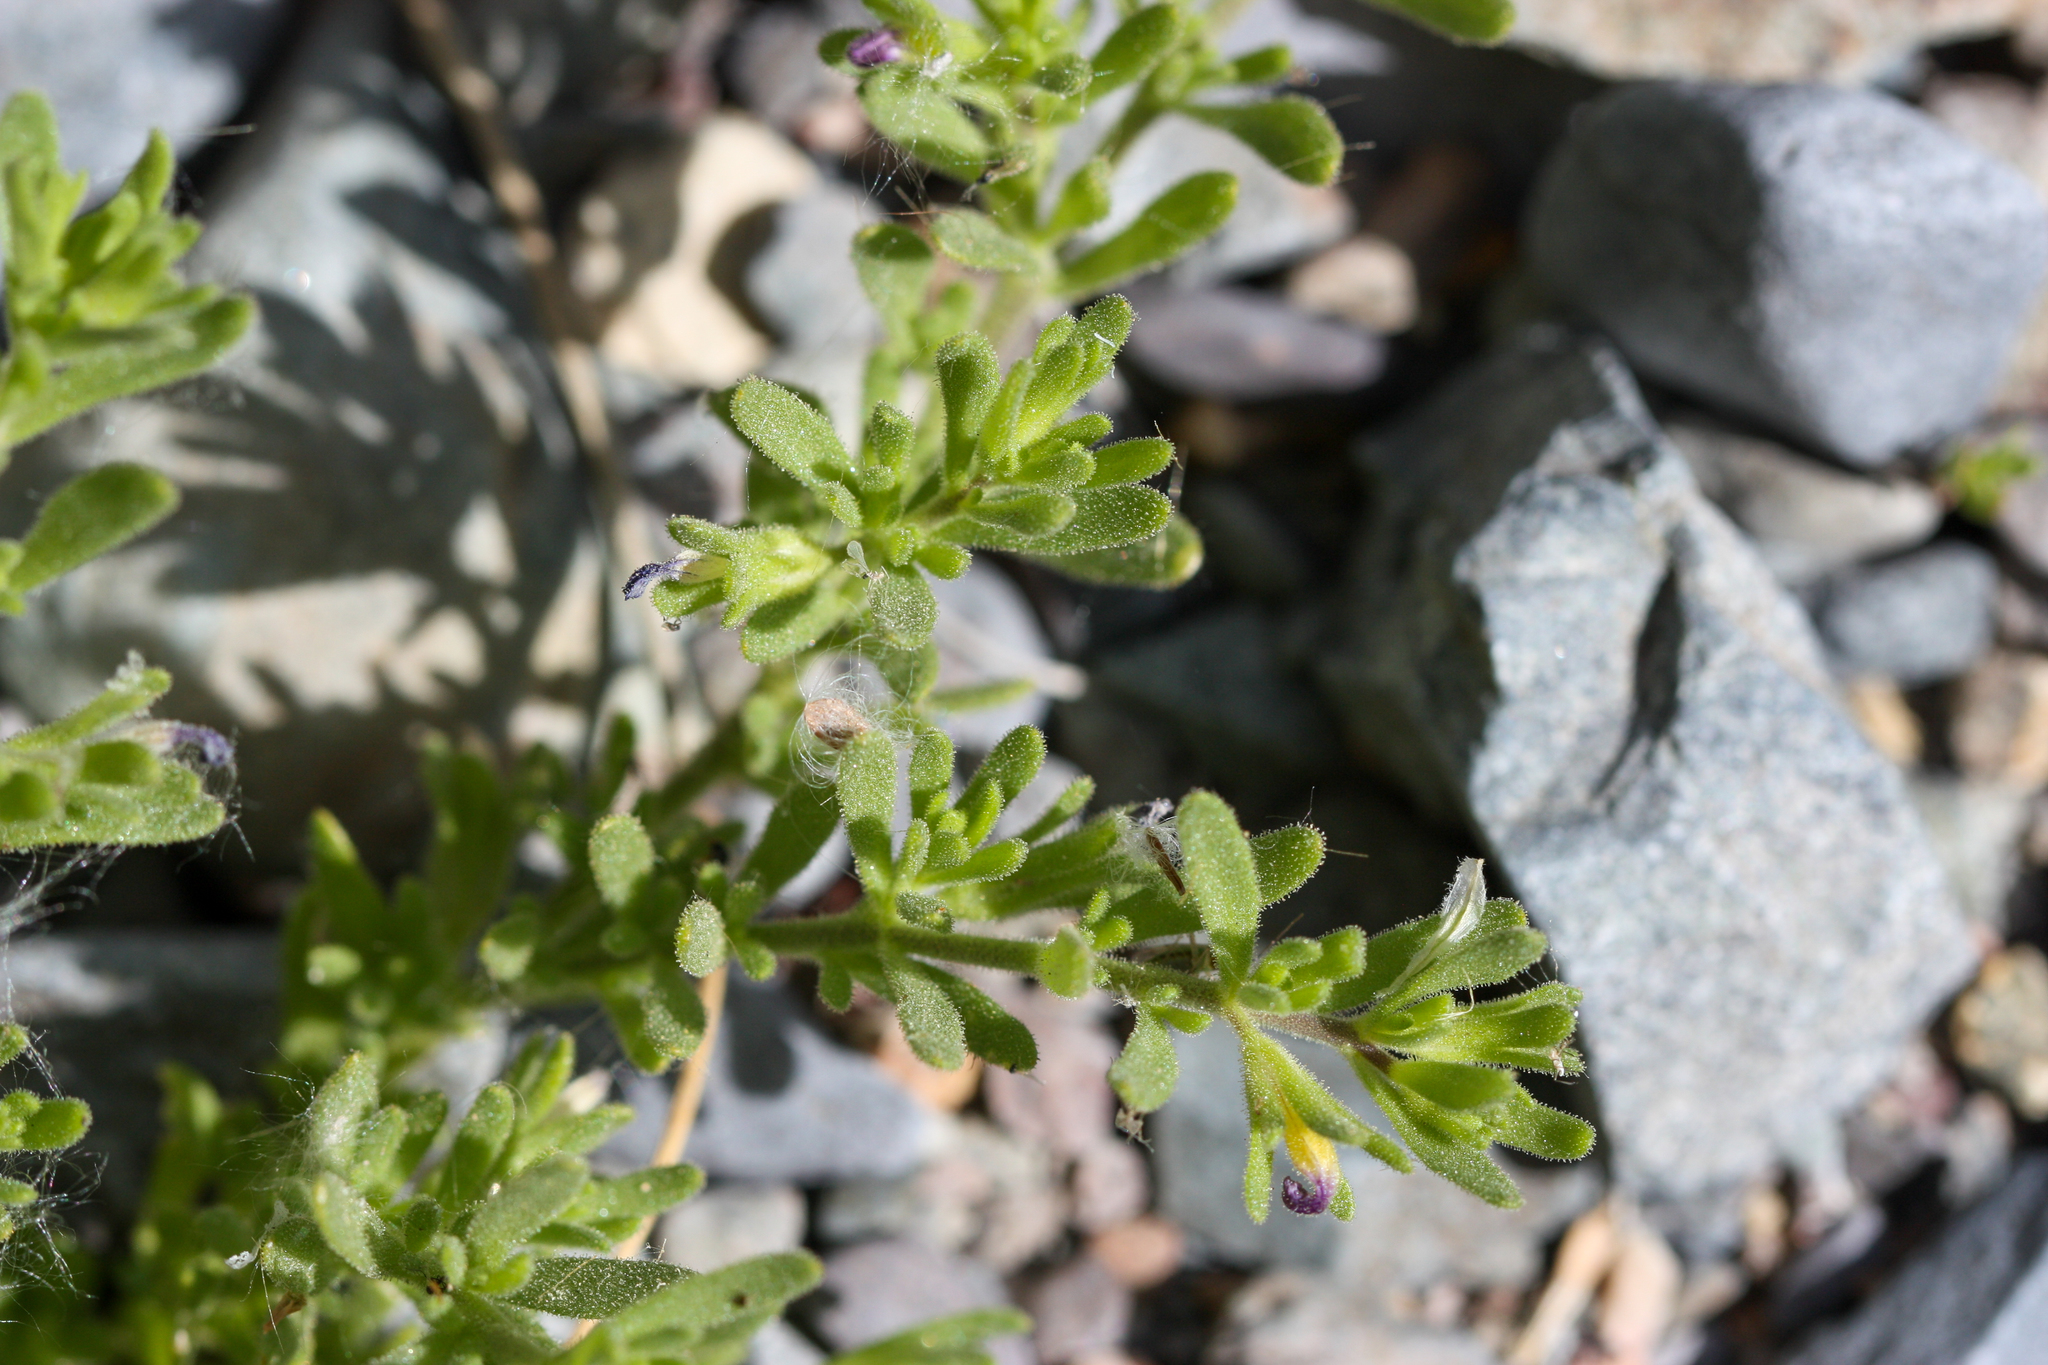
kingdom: Plantae
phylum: Tracheophyta
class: Magnoliopsida
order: Solanales
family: Solanaceae
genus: Calibrachoa
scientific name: Calibrachoa parviflora
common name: Seaside petunia
